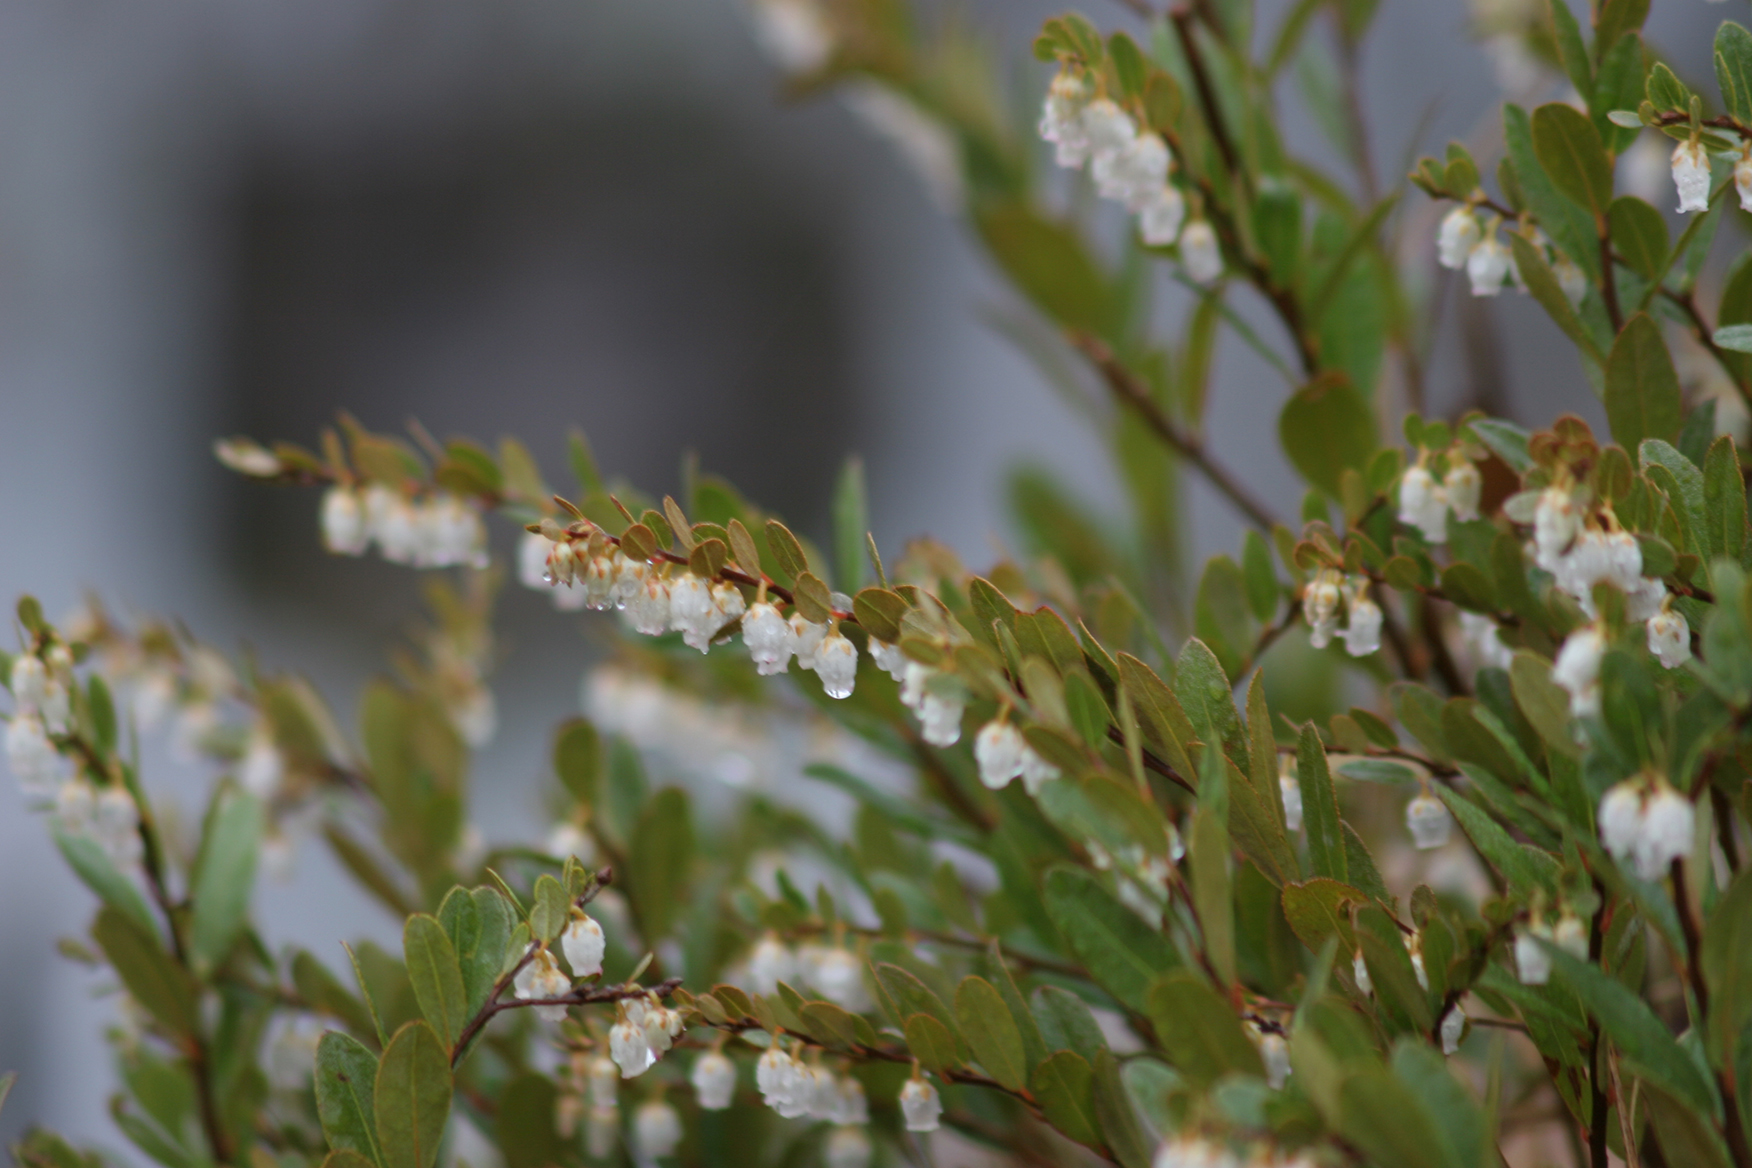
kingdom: Plantae
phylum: Tracheophyta
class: Magnoliopsida
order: Ericales
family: Ericaceae
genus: Chamaedaphne
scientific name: Chamaedaphne calyculata
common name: Leatherleaf
